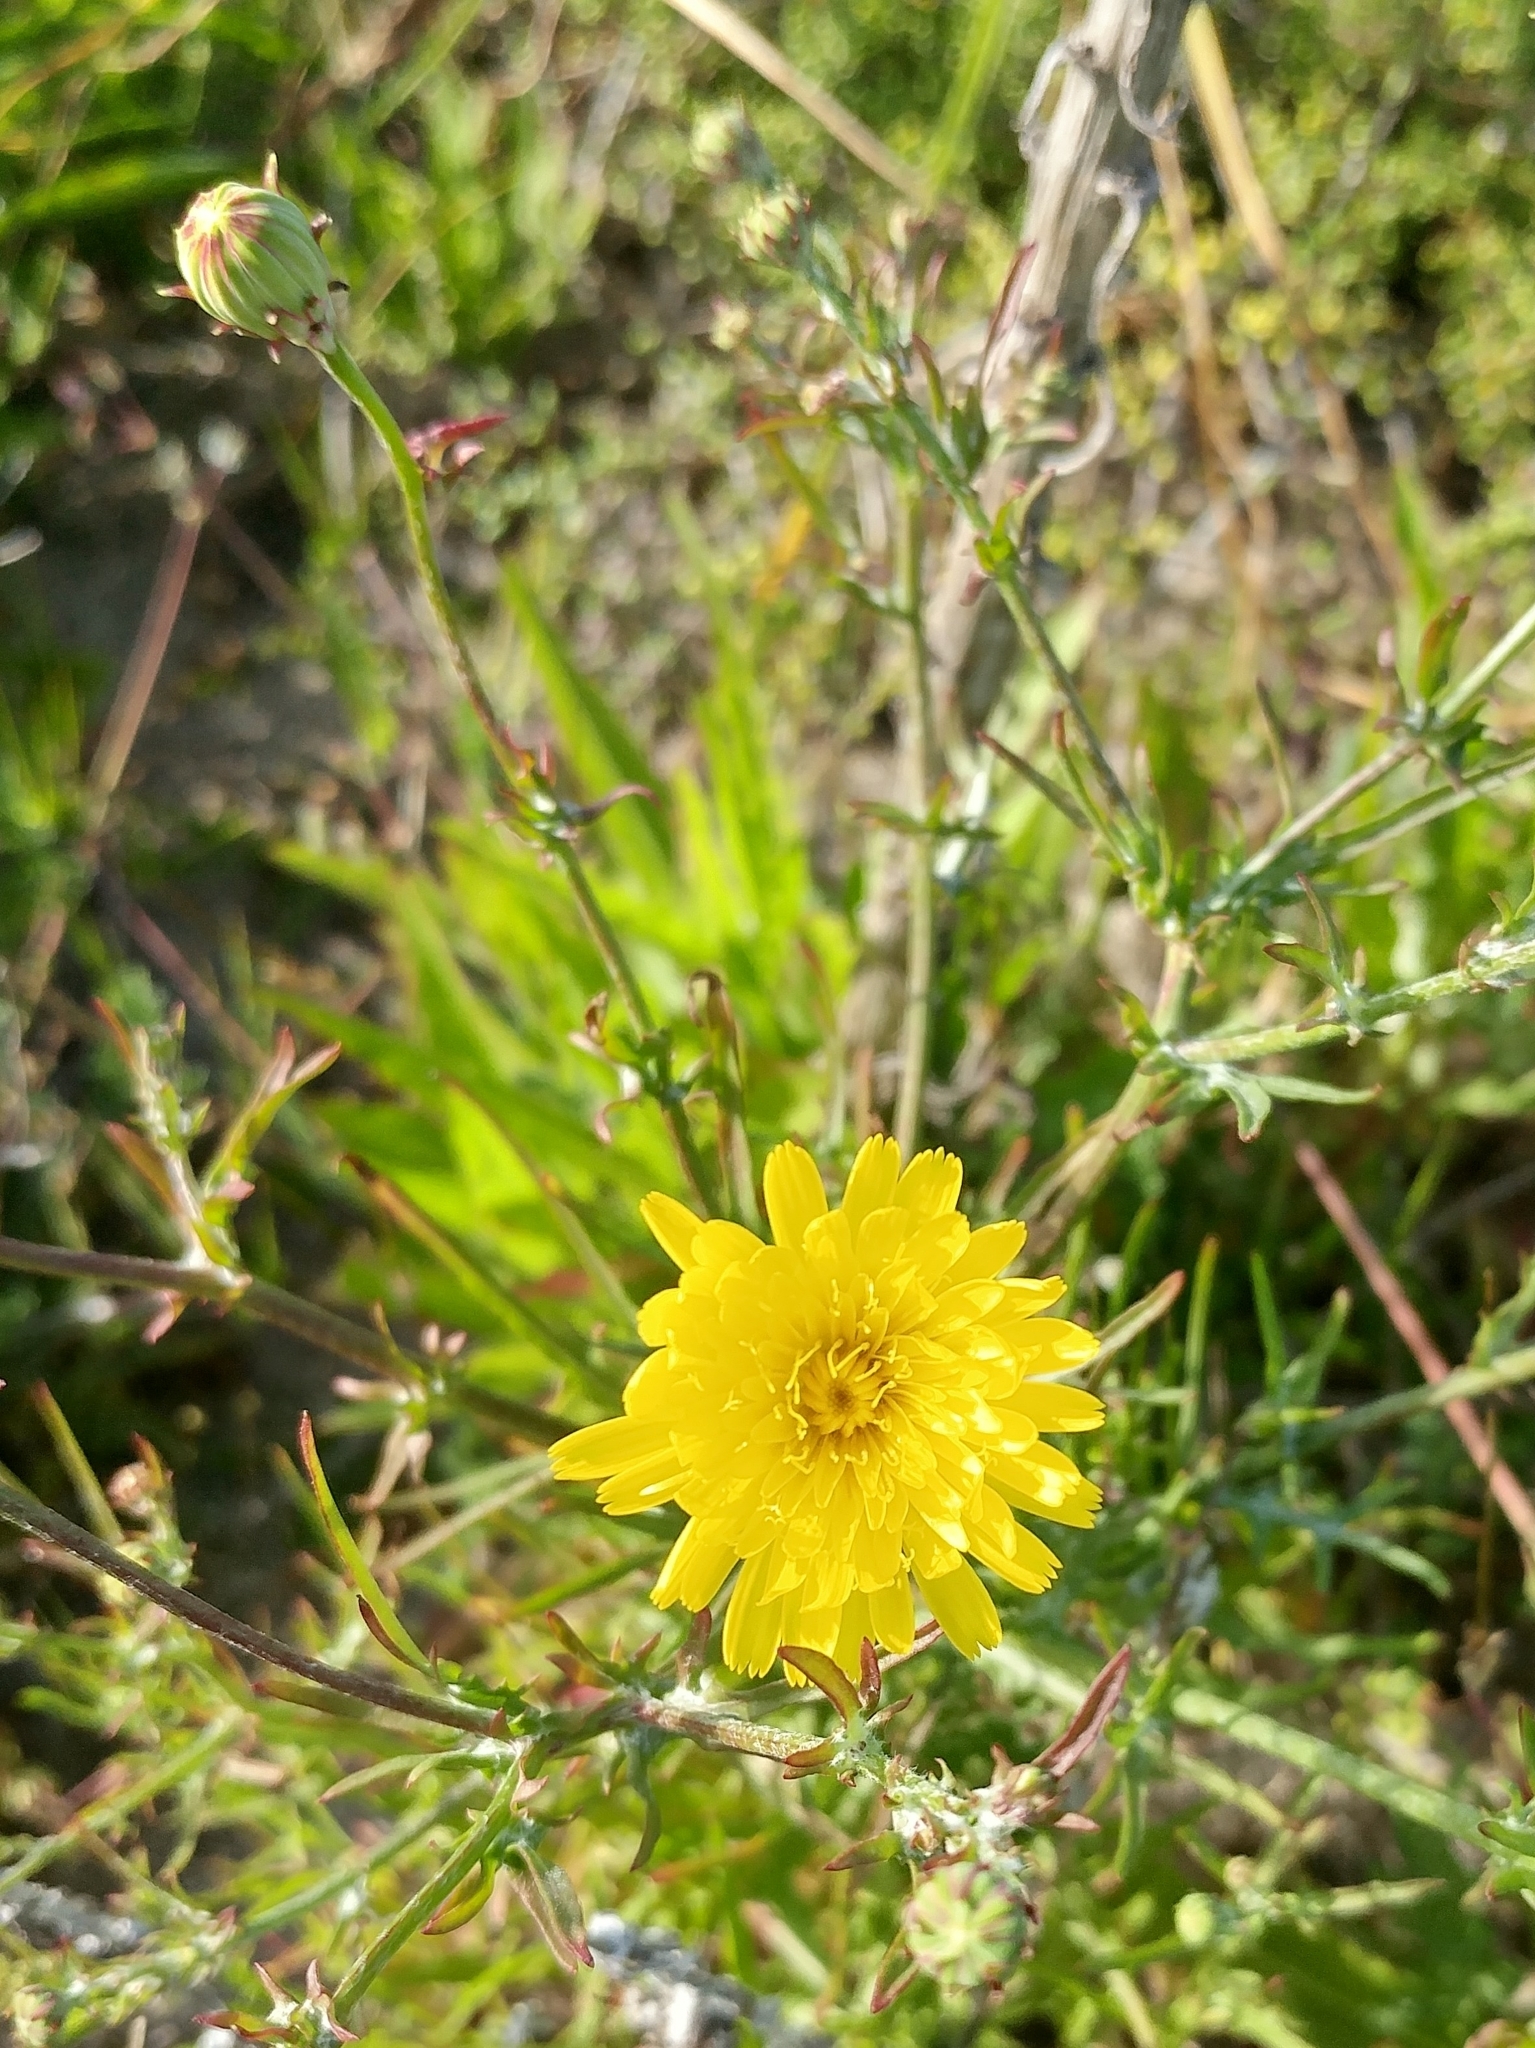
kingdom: Plantae
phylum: Tracheophyta
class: Magnoliopsida
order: Asterales
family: Asteraceae
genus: Malacothrix
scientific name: Malacothrix foliosa
